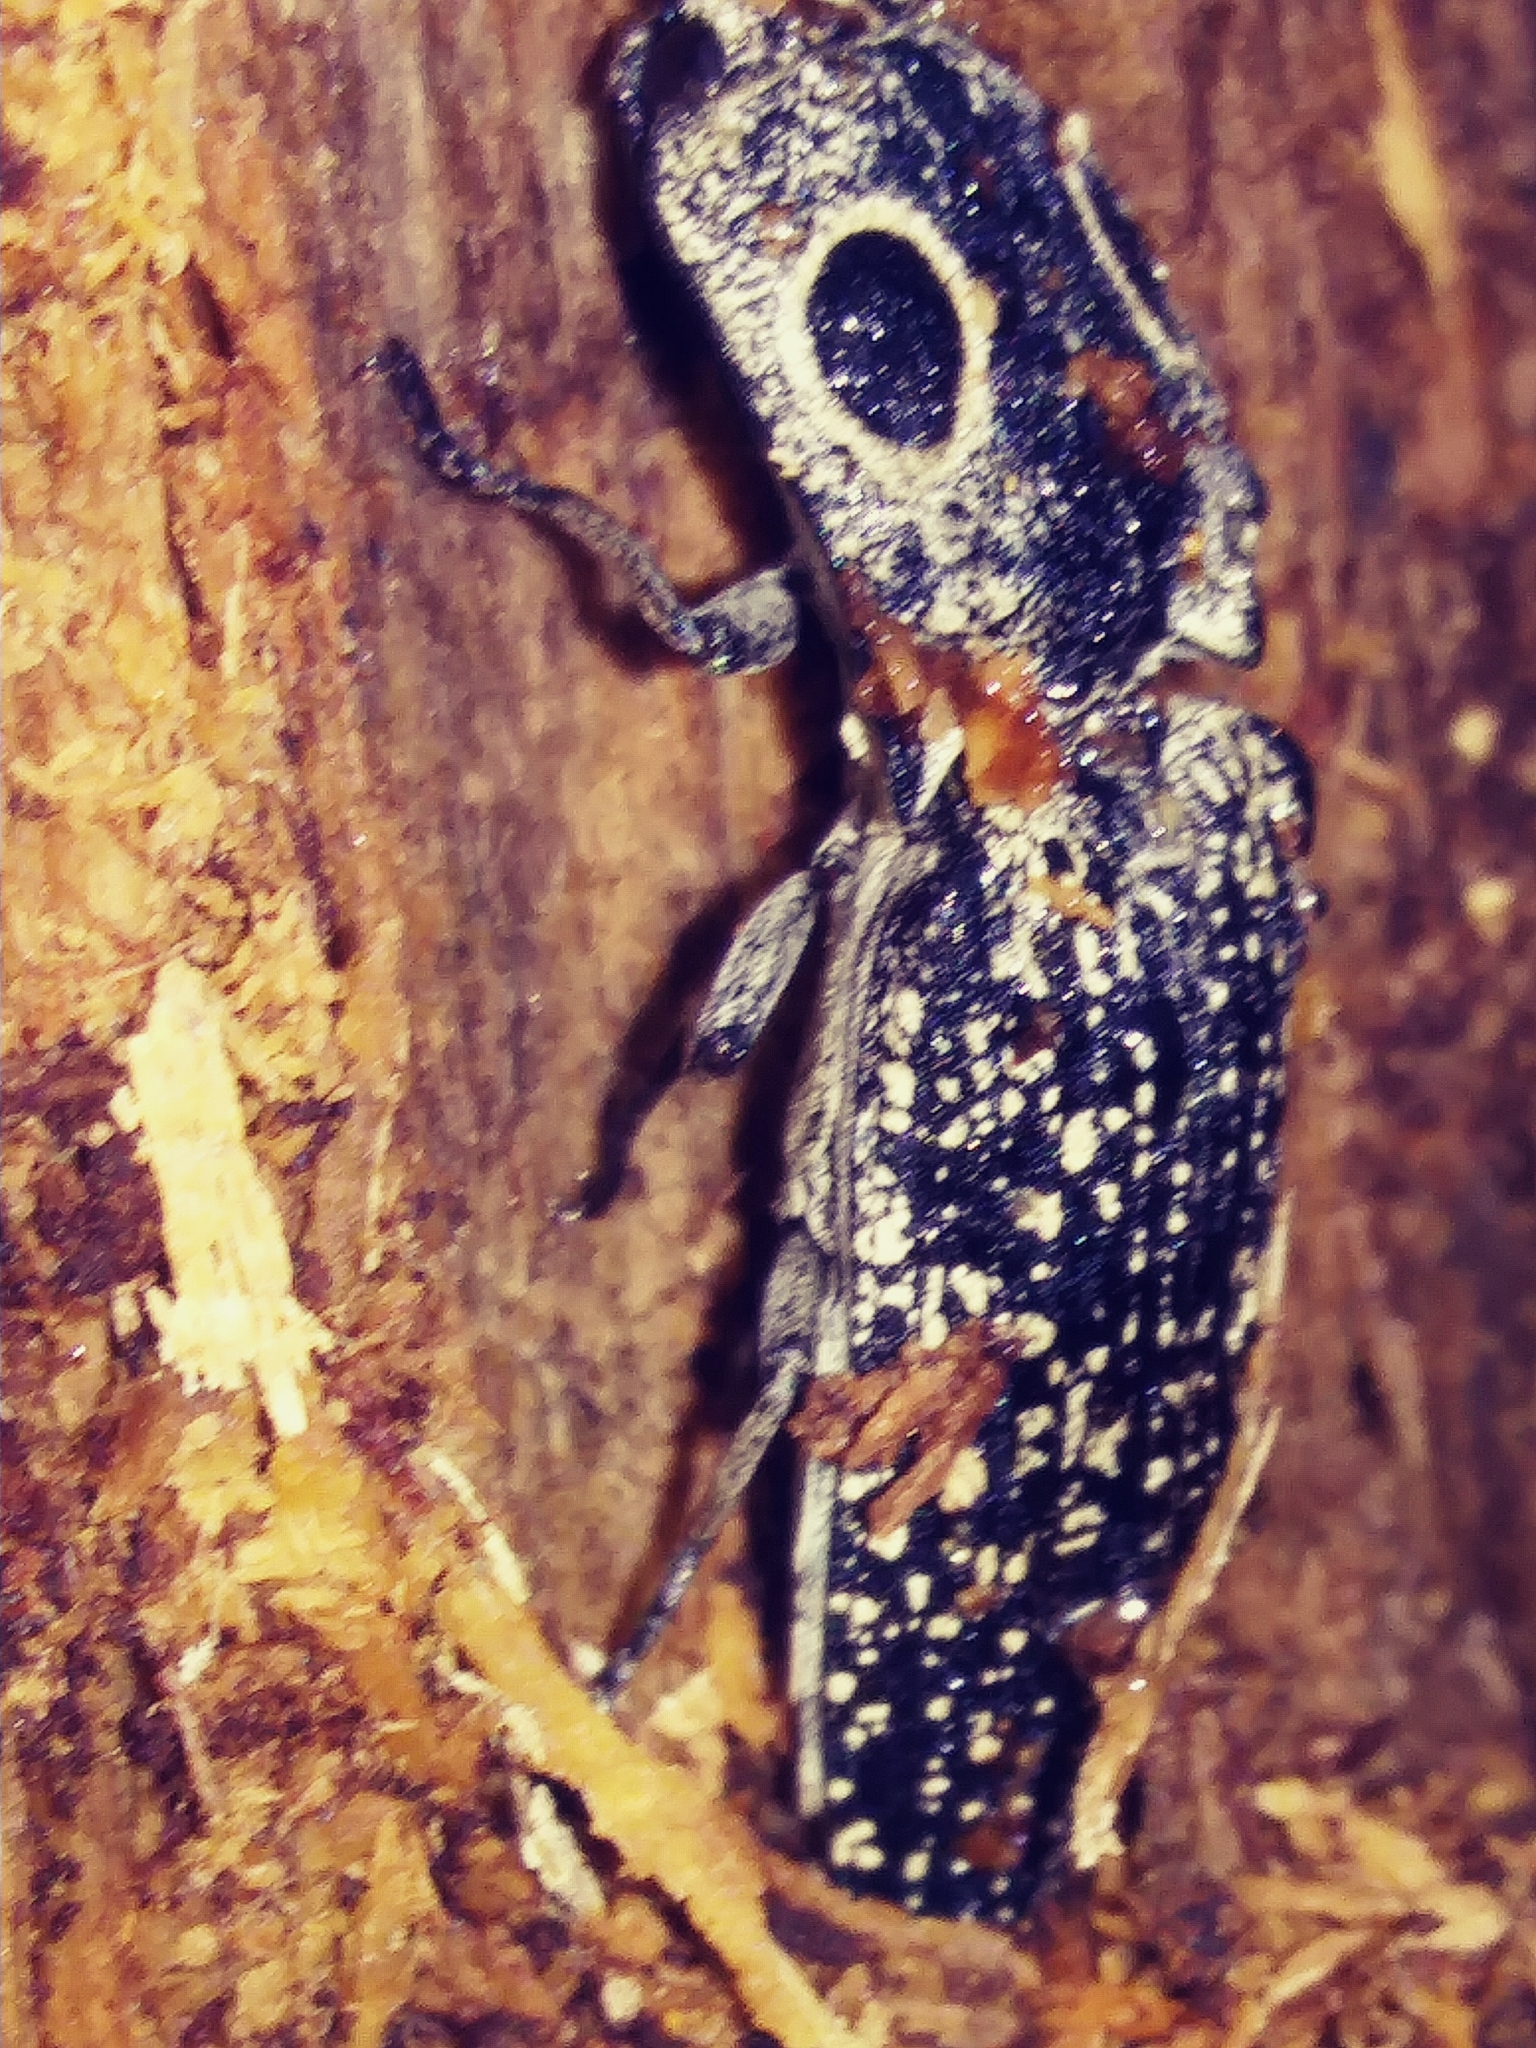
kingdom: Animalia
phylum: Arthropoda
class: Insecta
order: Coleoptera
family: Elateridae
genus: Alaus
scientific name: Alaus oculatus
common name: Eastern eyed click beetle
